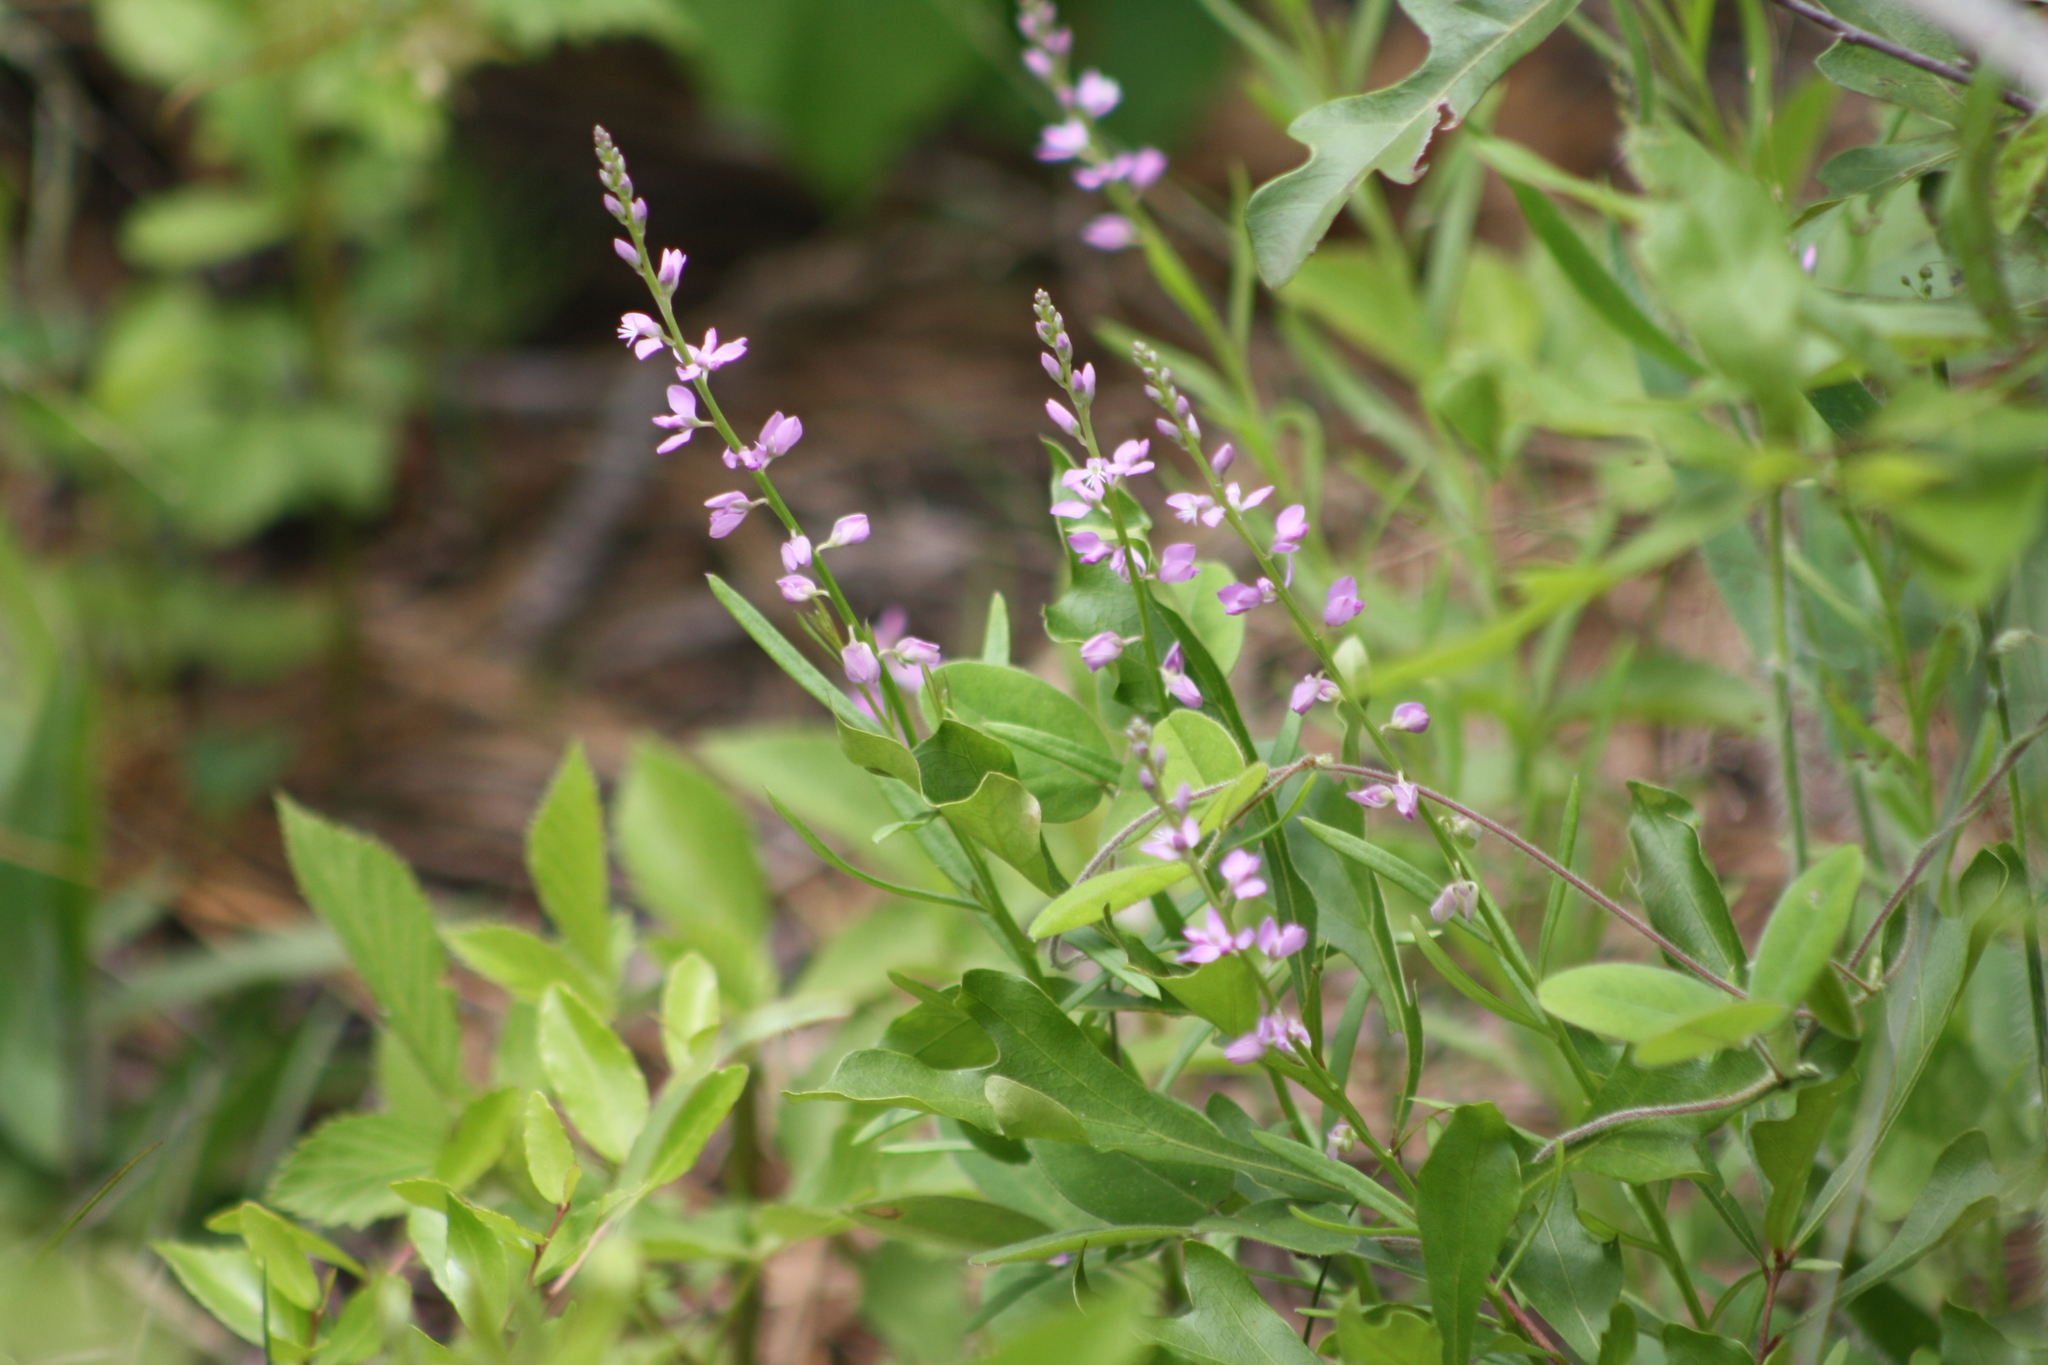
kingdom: Plantae
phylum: Tracheophyta
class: Magnoliopsida
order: Fabales
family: Polygalaceae
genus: Polygala
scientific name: Polygala polygama
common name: Bitter milkwort
